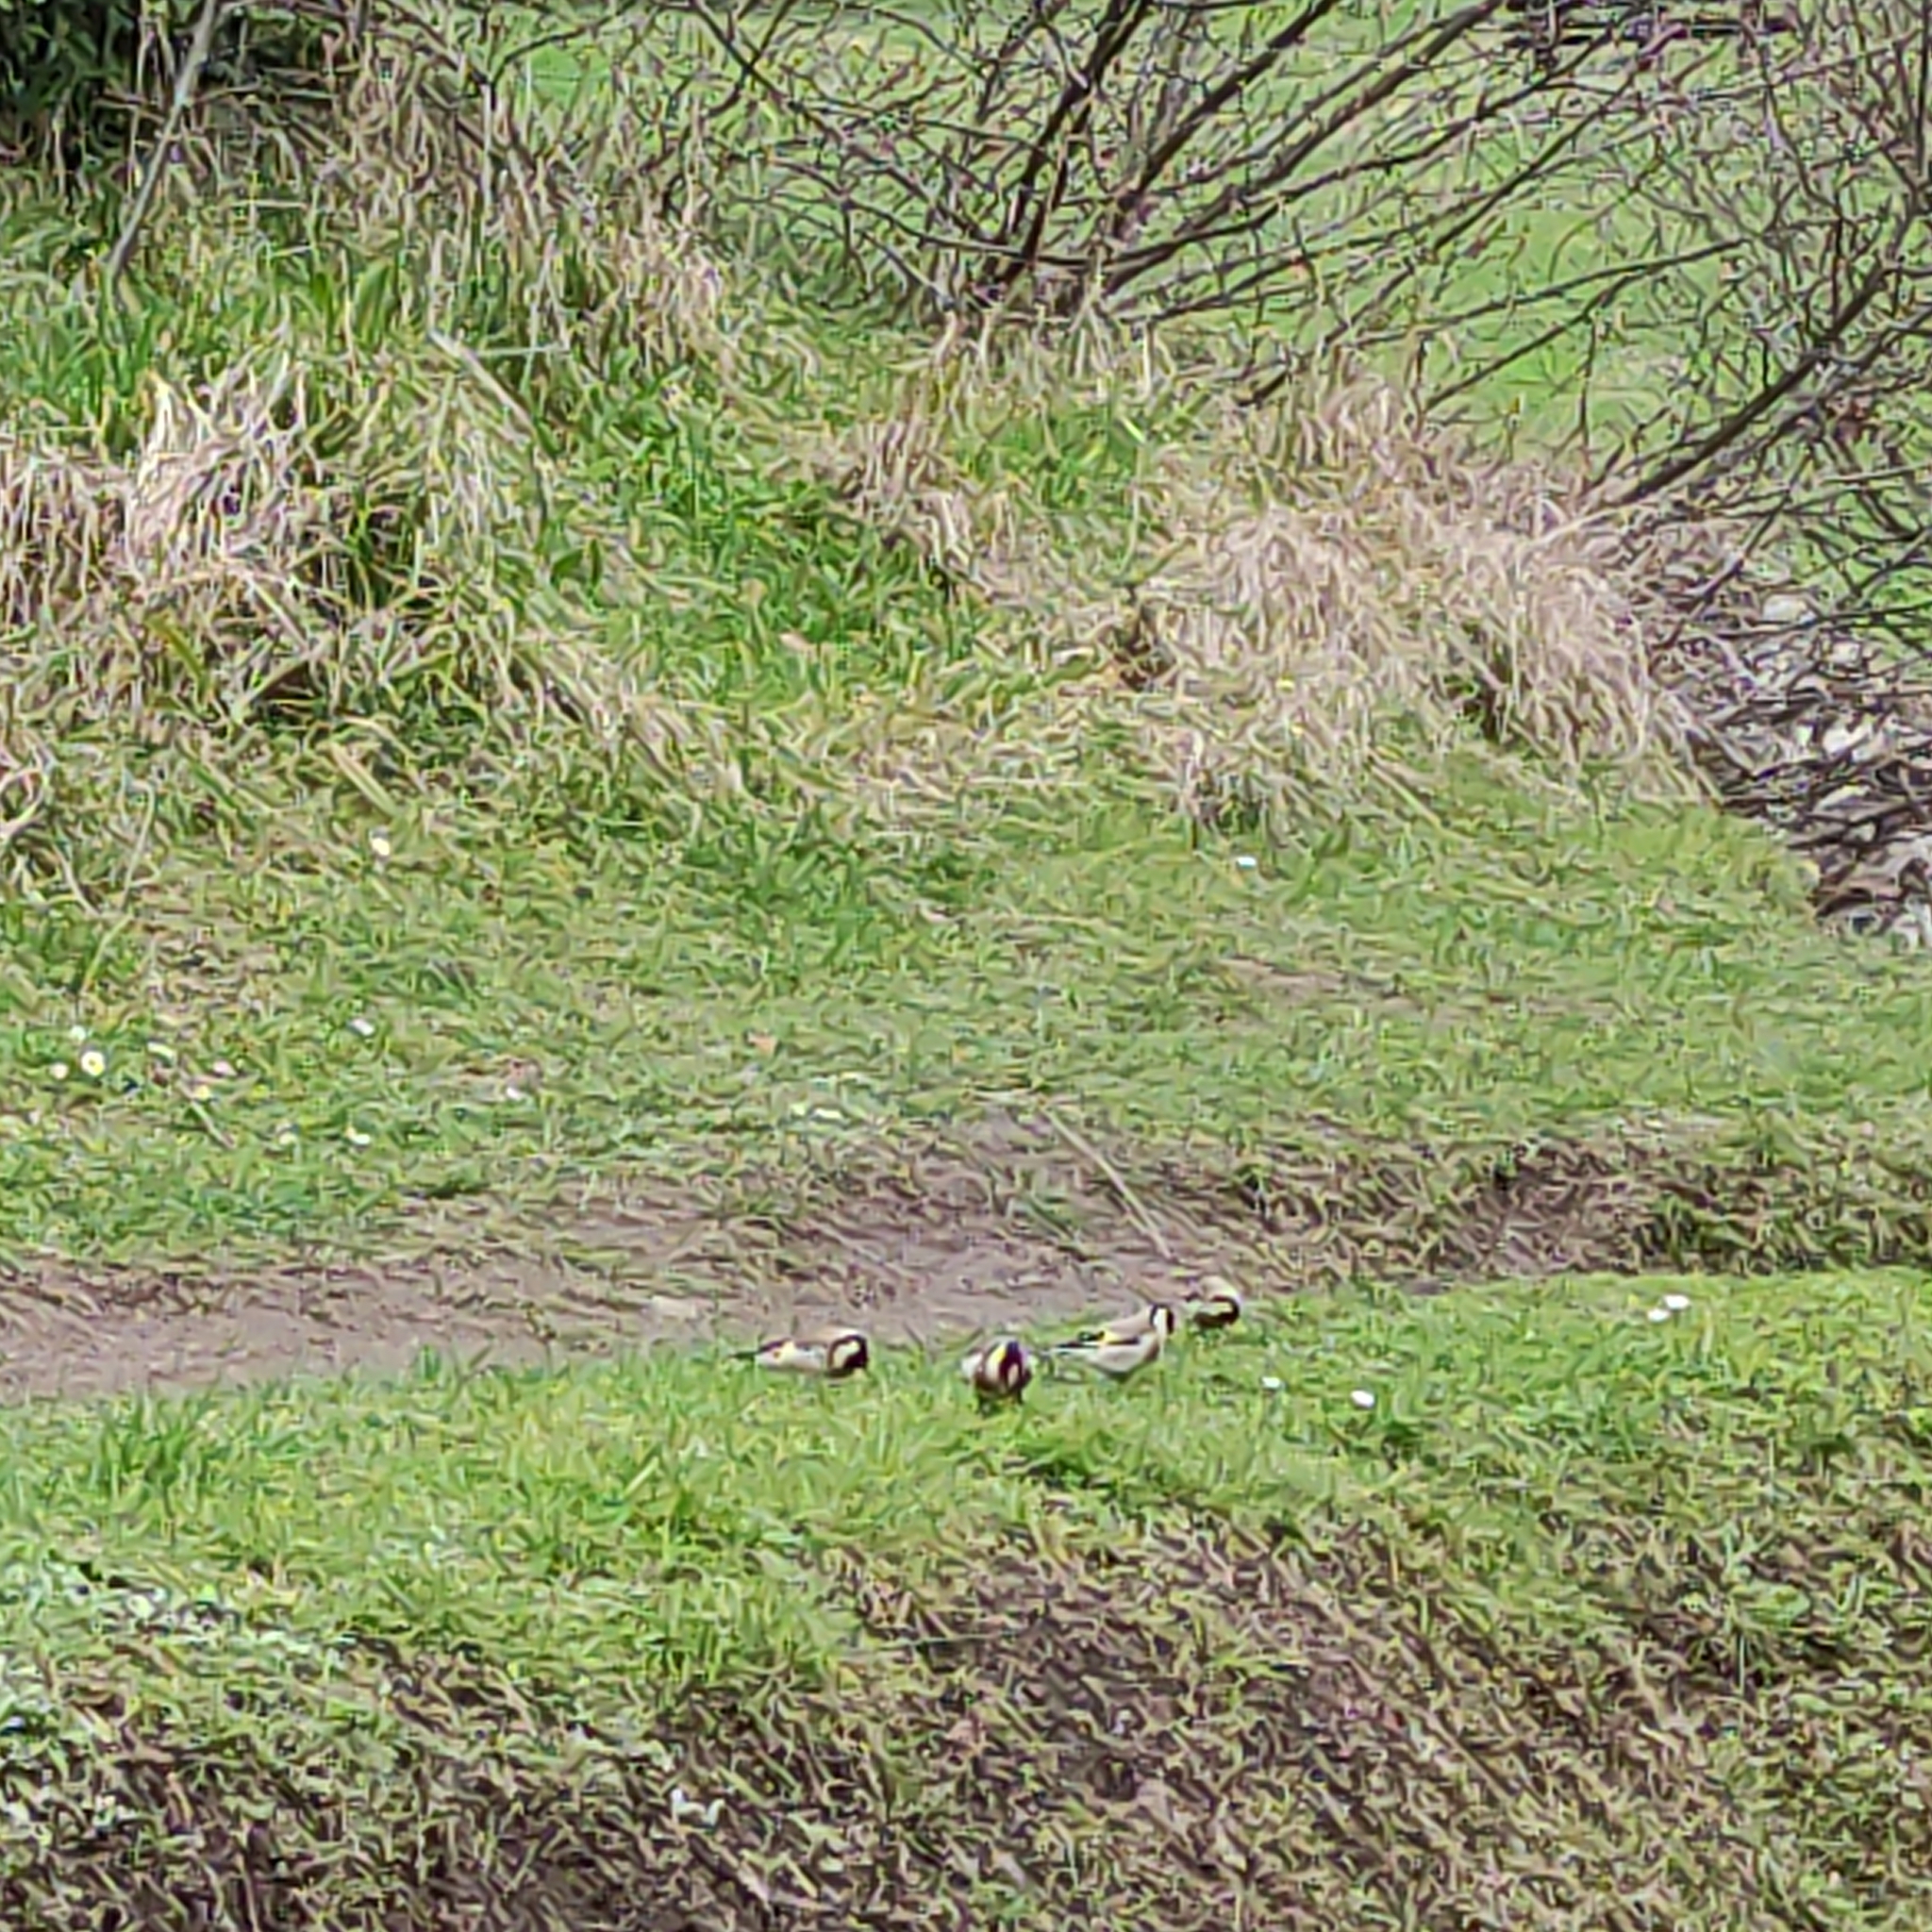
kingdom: Animalia
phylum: Chordata
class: Aves
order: Passeriformes
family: Fringillidae
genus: Carduelis
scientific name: Carduelis carduelis
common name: European goldfinch
